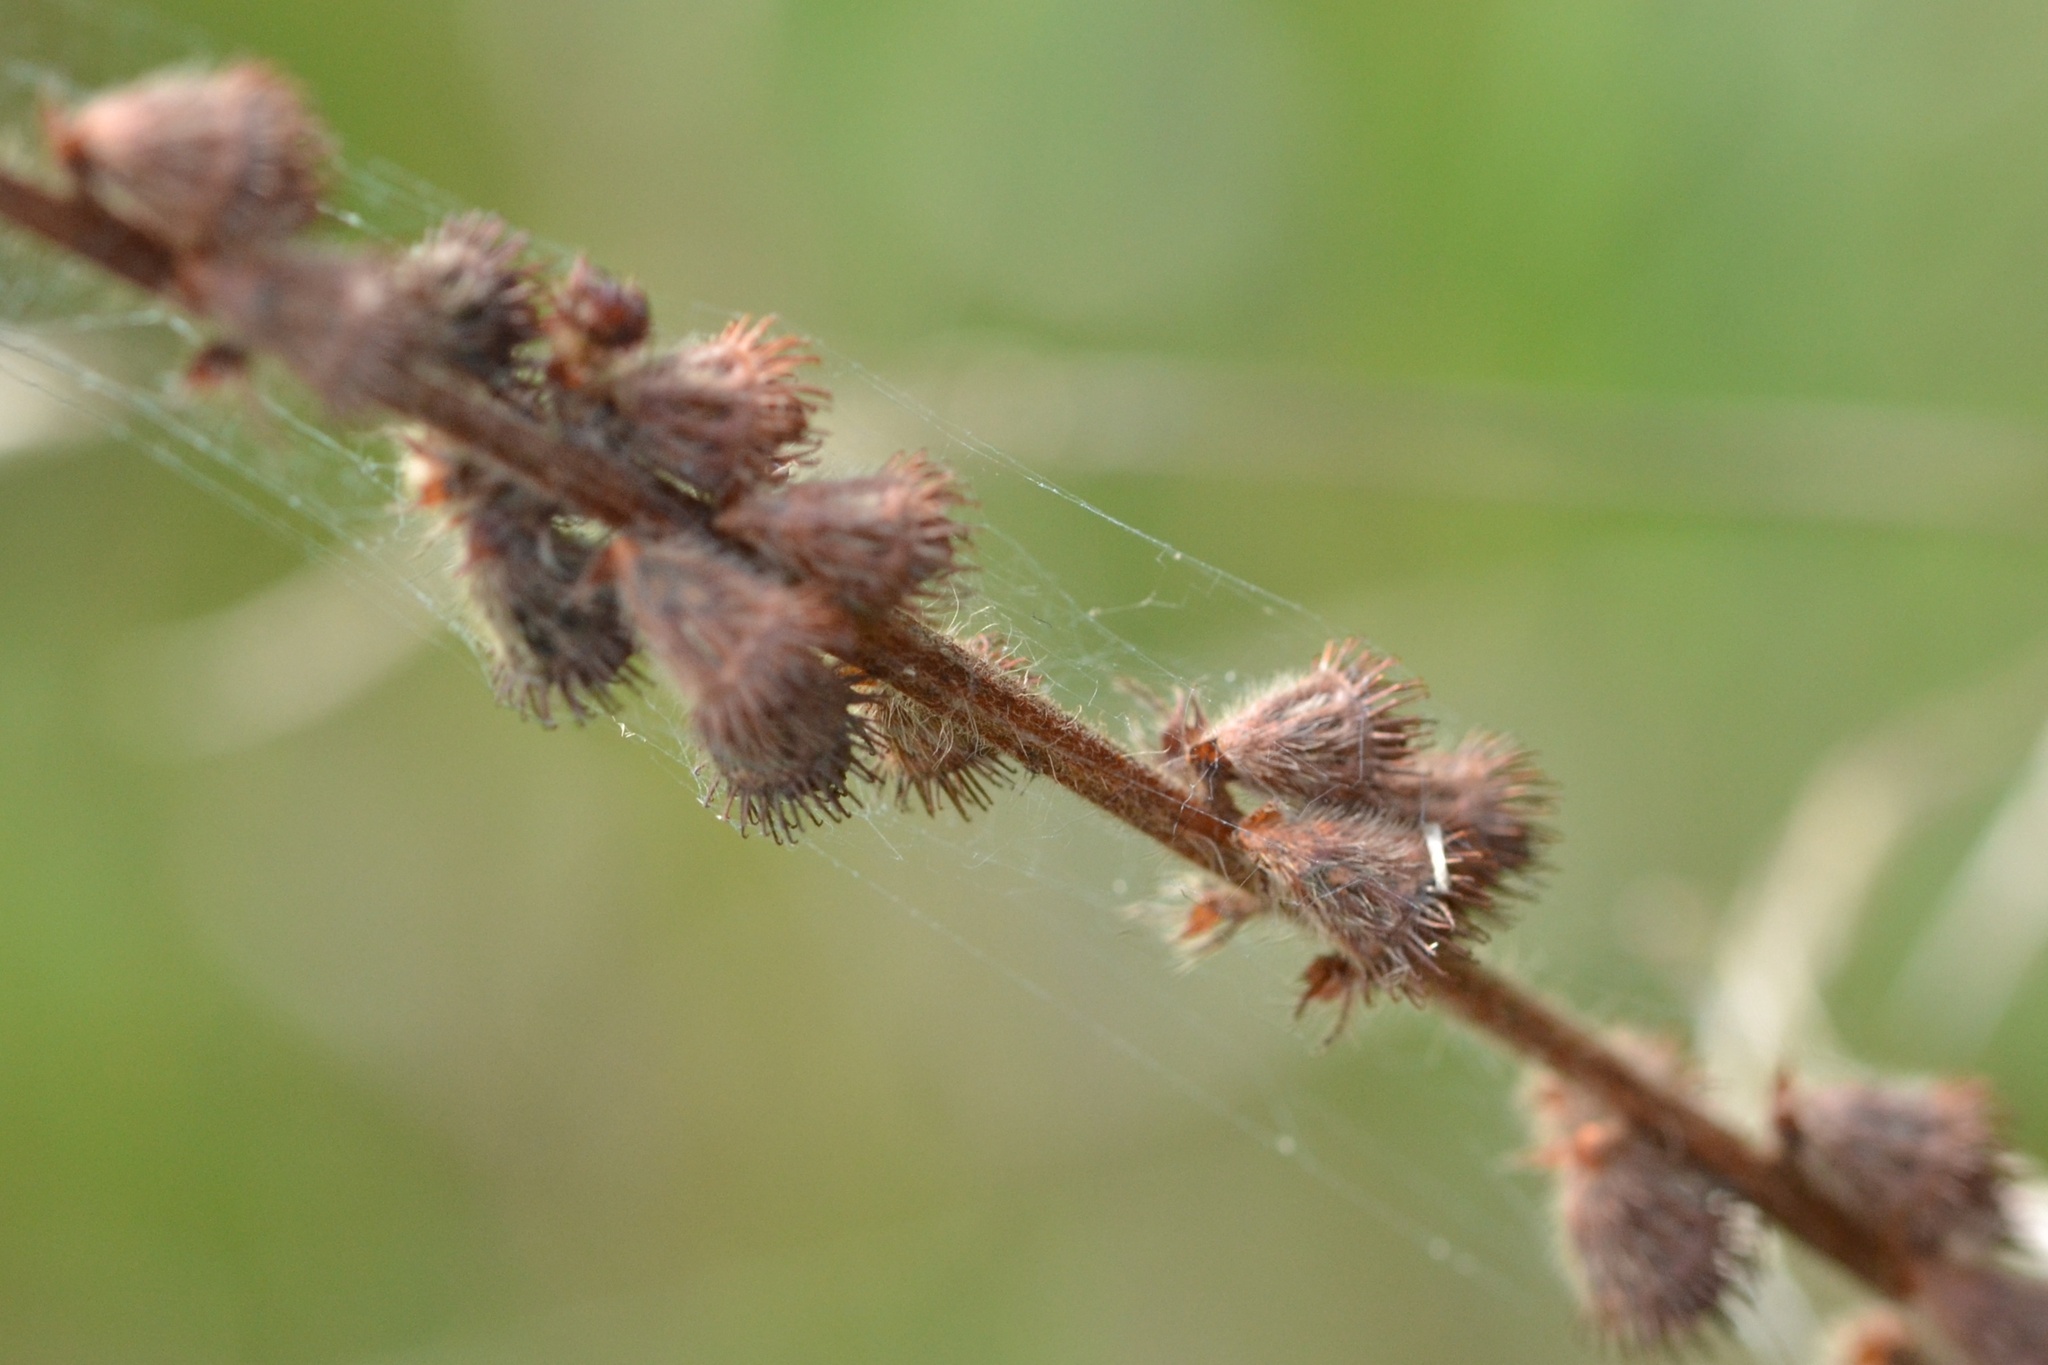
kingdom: Plantae
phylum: Tracheophyta
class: Magnoliopsida
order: Rosales
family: Rosaceae
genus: Agrimonia
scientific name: Agrimonia eupatoria
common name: Agrimony
